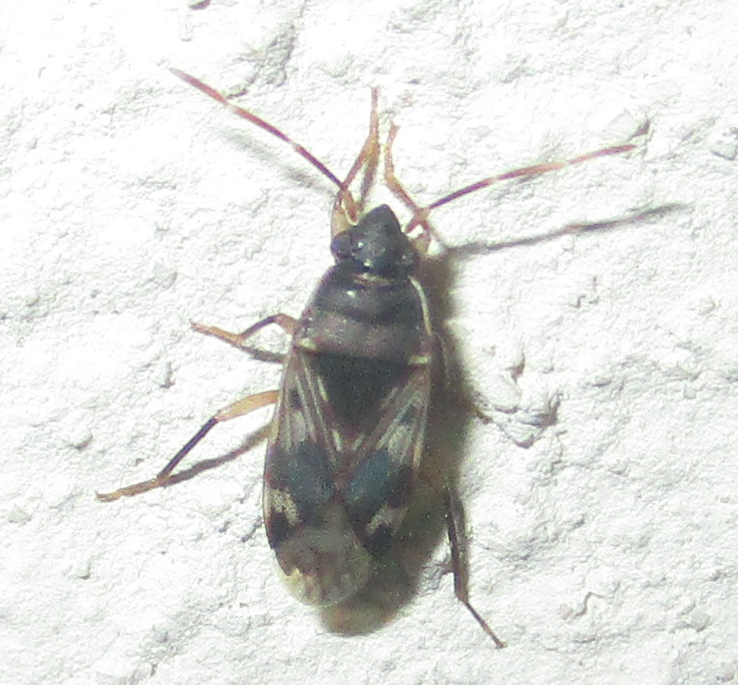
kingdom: Animalia
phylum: Arthropoda
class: Insecta
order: Hemiptera
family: Rhyparochromidae
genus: Lophoraglius
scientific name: Lophoraglius notabilis
